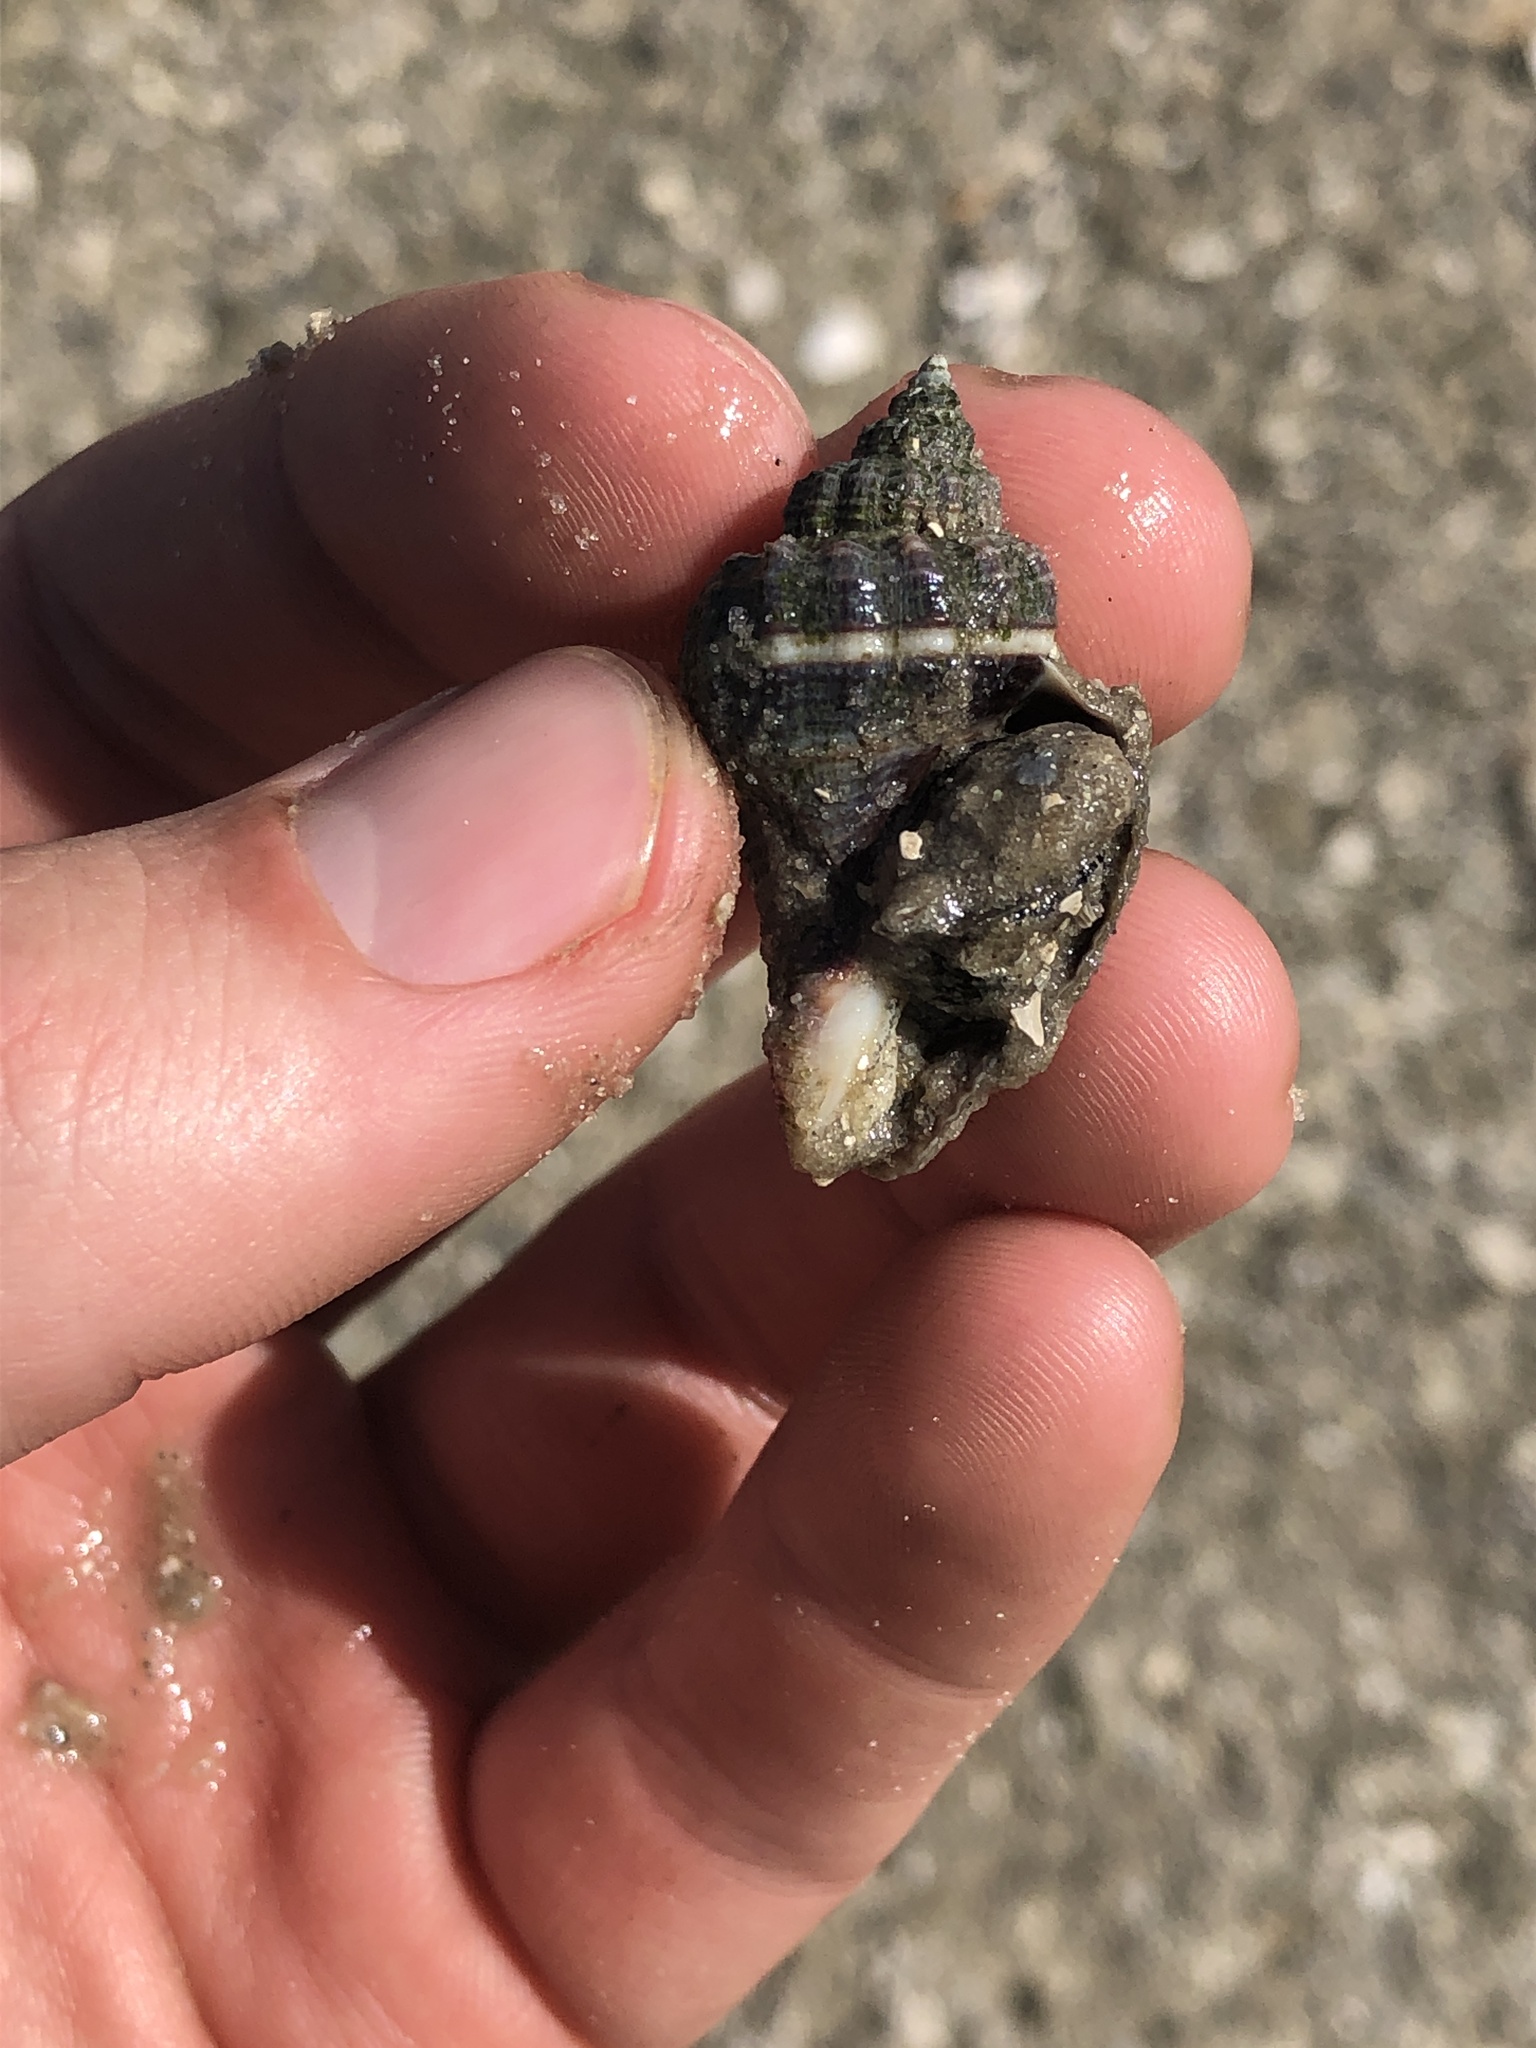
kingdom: Animalia
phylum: Mollusca
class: Gastropoda
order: Neogastropoda
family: Melongenidae
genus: Melongena
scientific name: Melongena corona
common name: American crown conch
